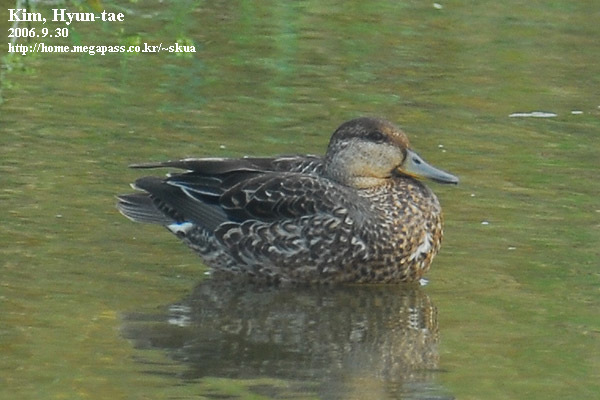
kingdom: Animalia
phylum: Chordata
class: Aves
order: Anseriformes
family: Anatidae
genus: Anas
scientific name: Anas platyrhynchos
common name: Mallard
